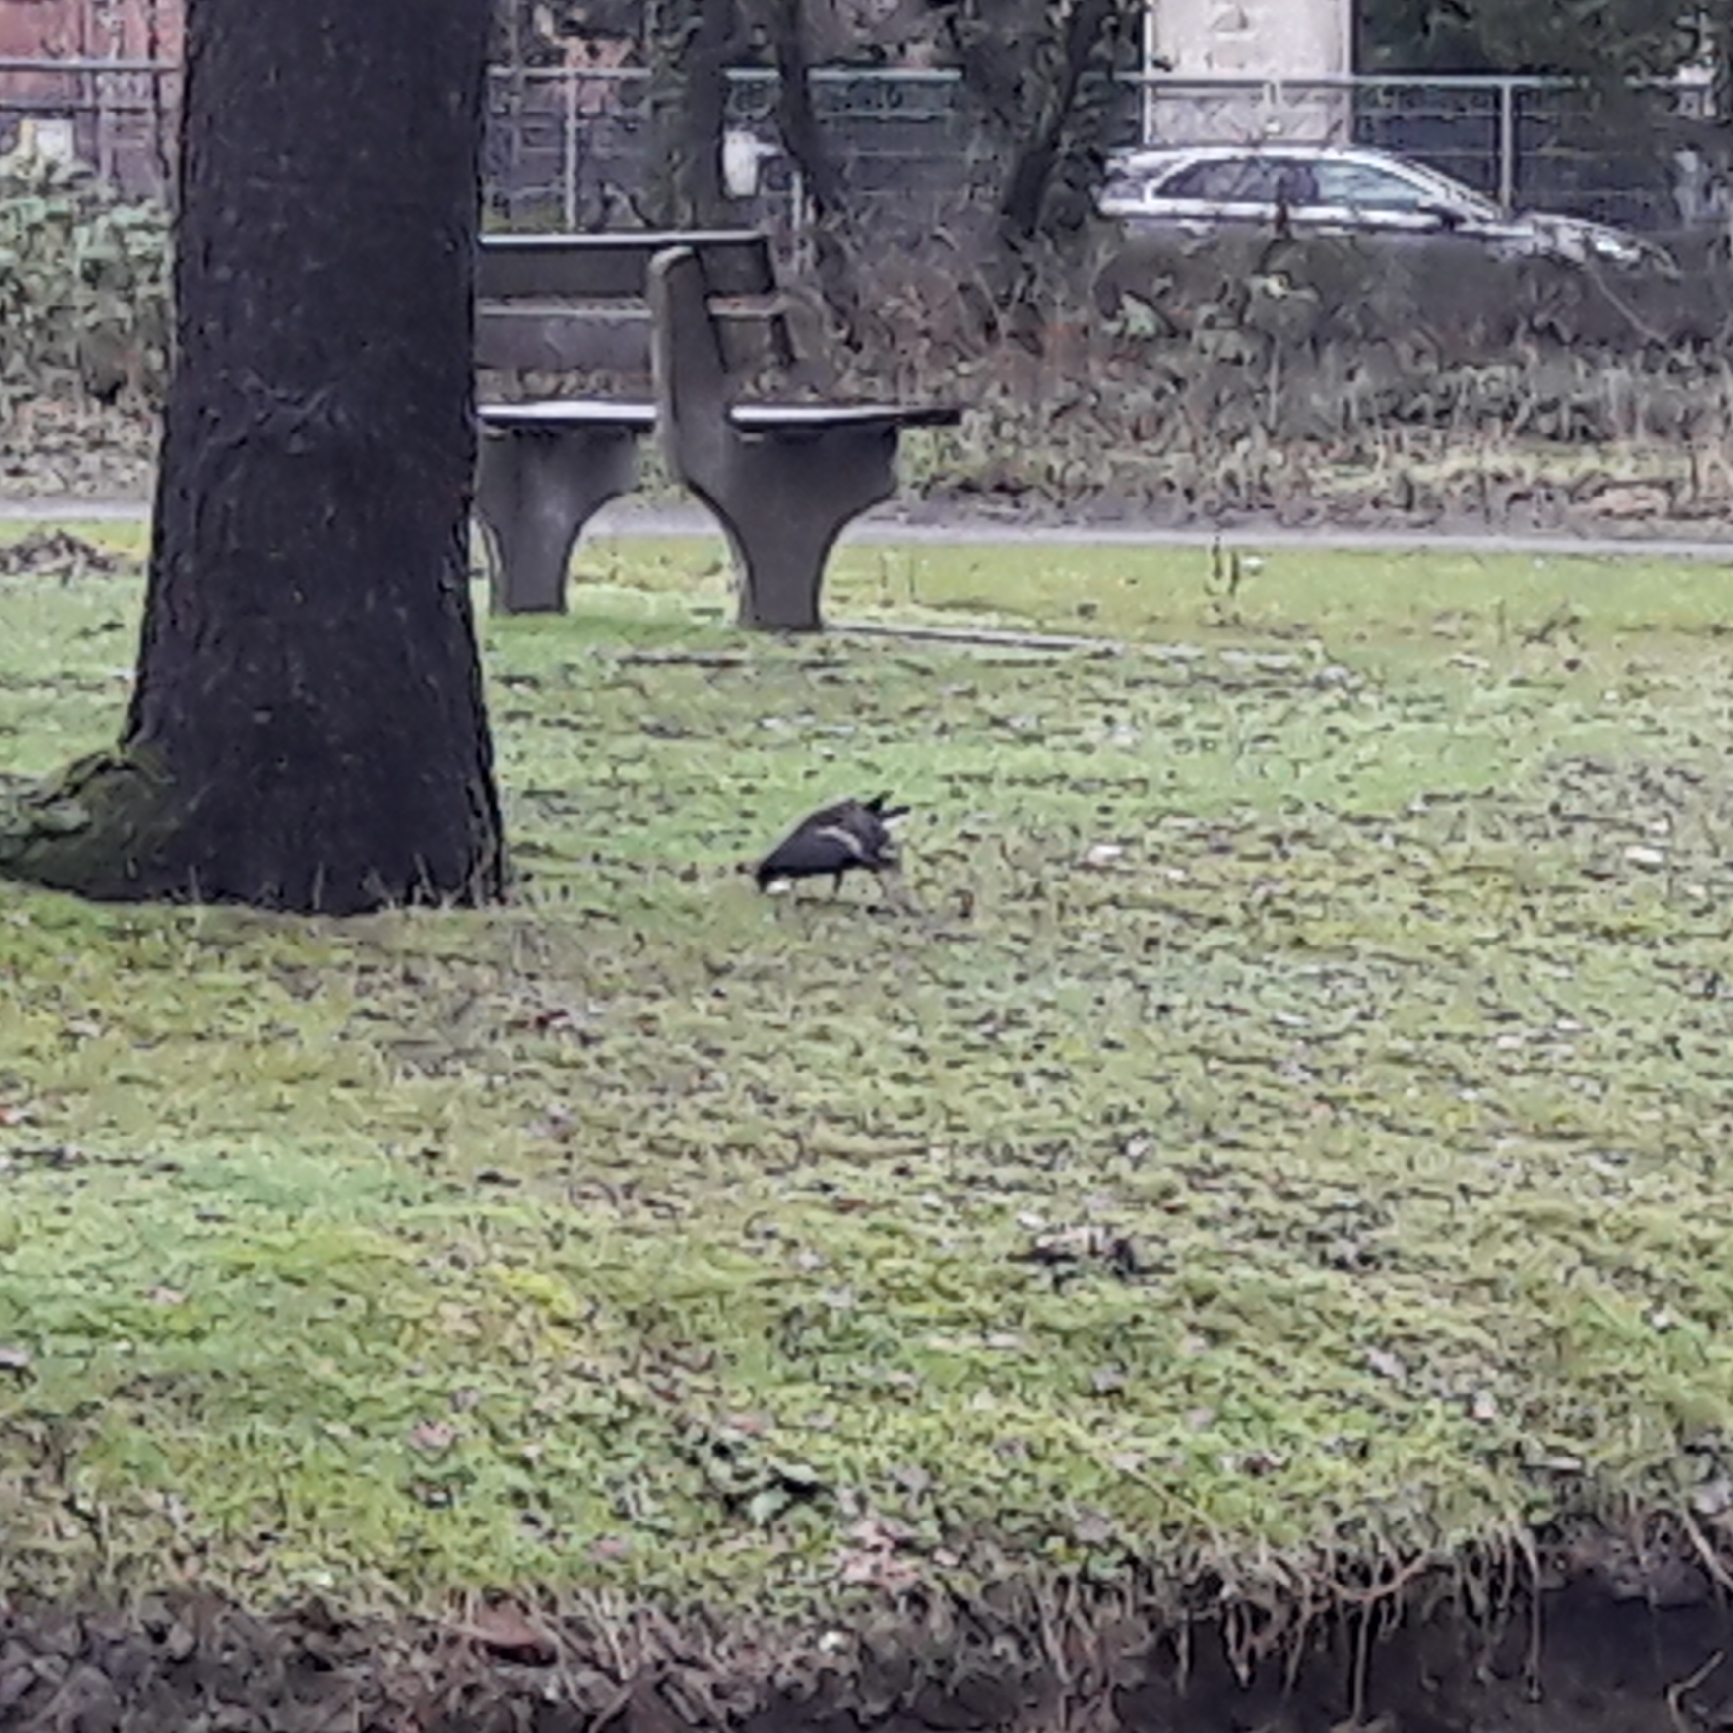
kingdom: Animalia
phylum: Chordata
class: Aves
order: Gruiformes
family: Rallidae
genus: Gallinula
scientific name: Gallinula chloropus
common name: Common moorhen
